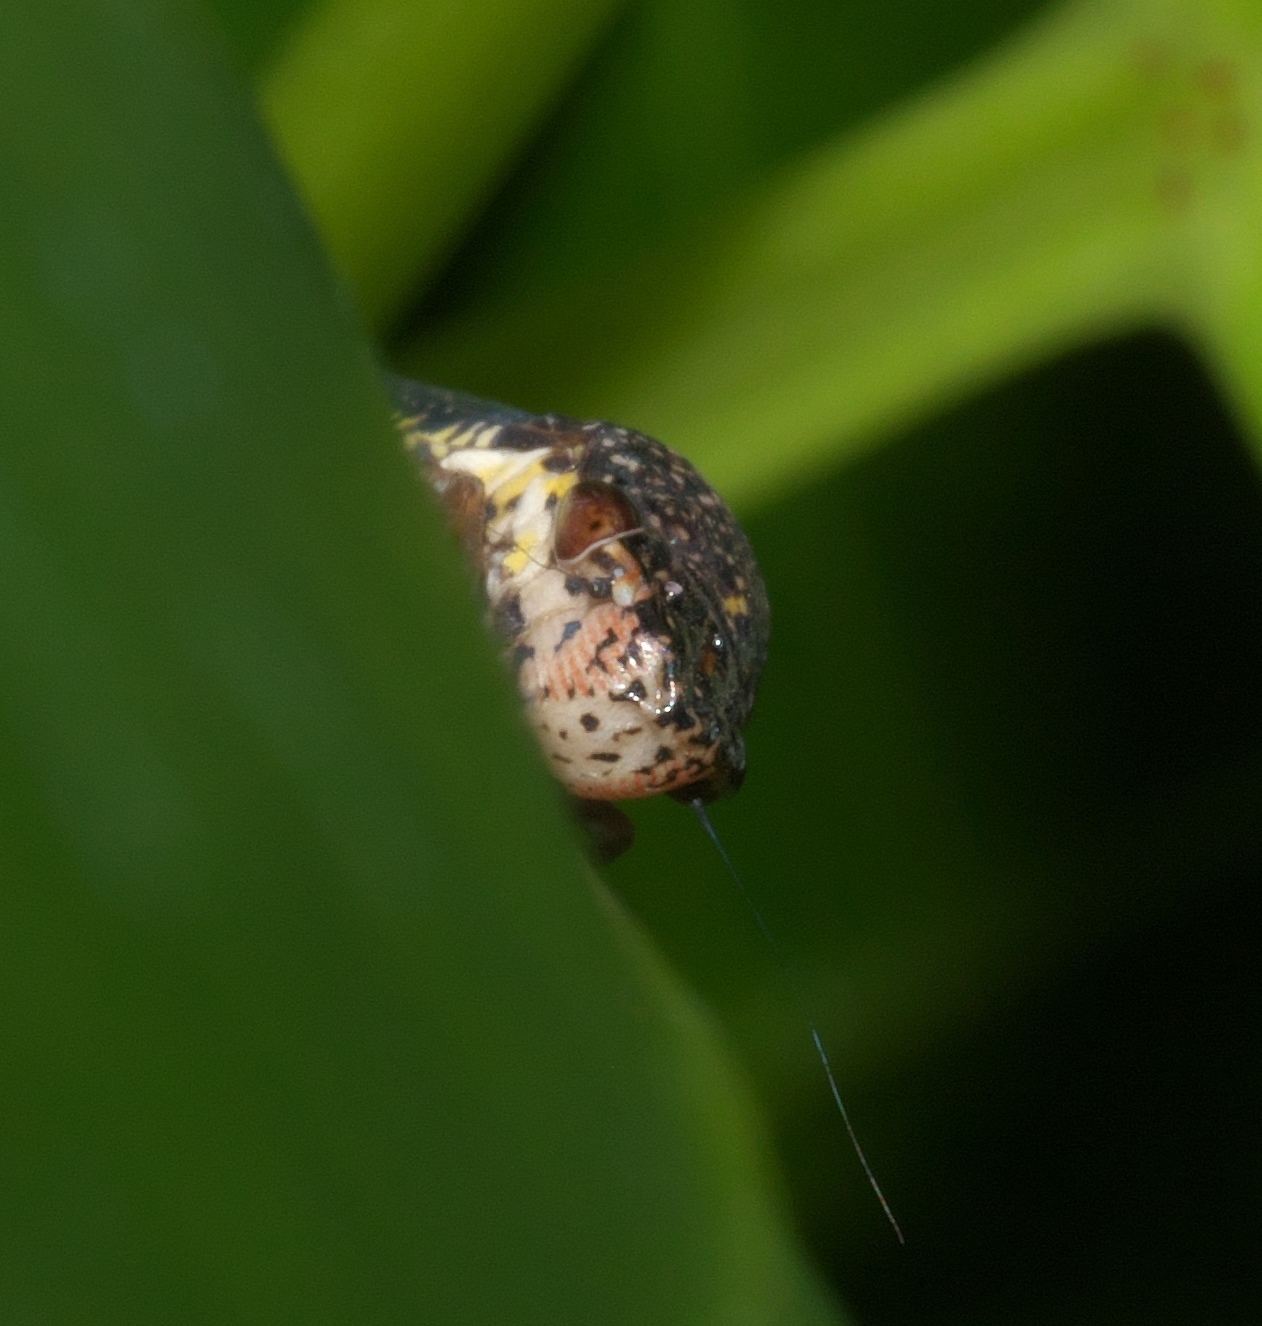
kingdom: Animalia
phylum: Arthropoda
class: Insecta
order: Hemiptera
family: Cicadellidae
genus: Paraulacizes
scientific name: Paraulacizes irrorata
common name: Speckled sharpshooter
